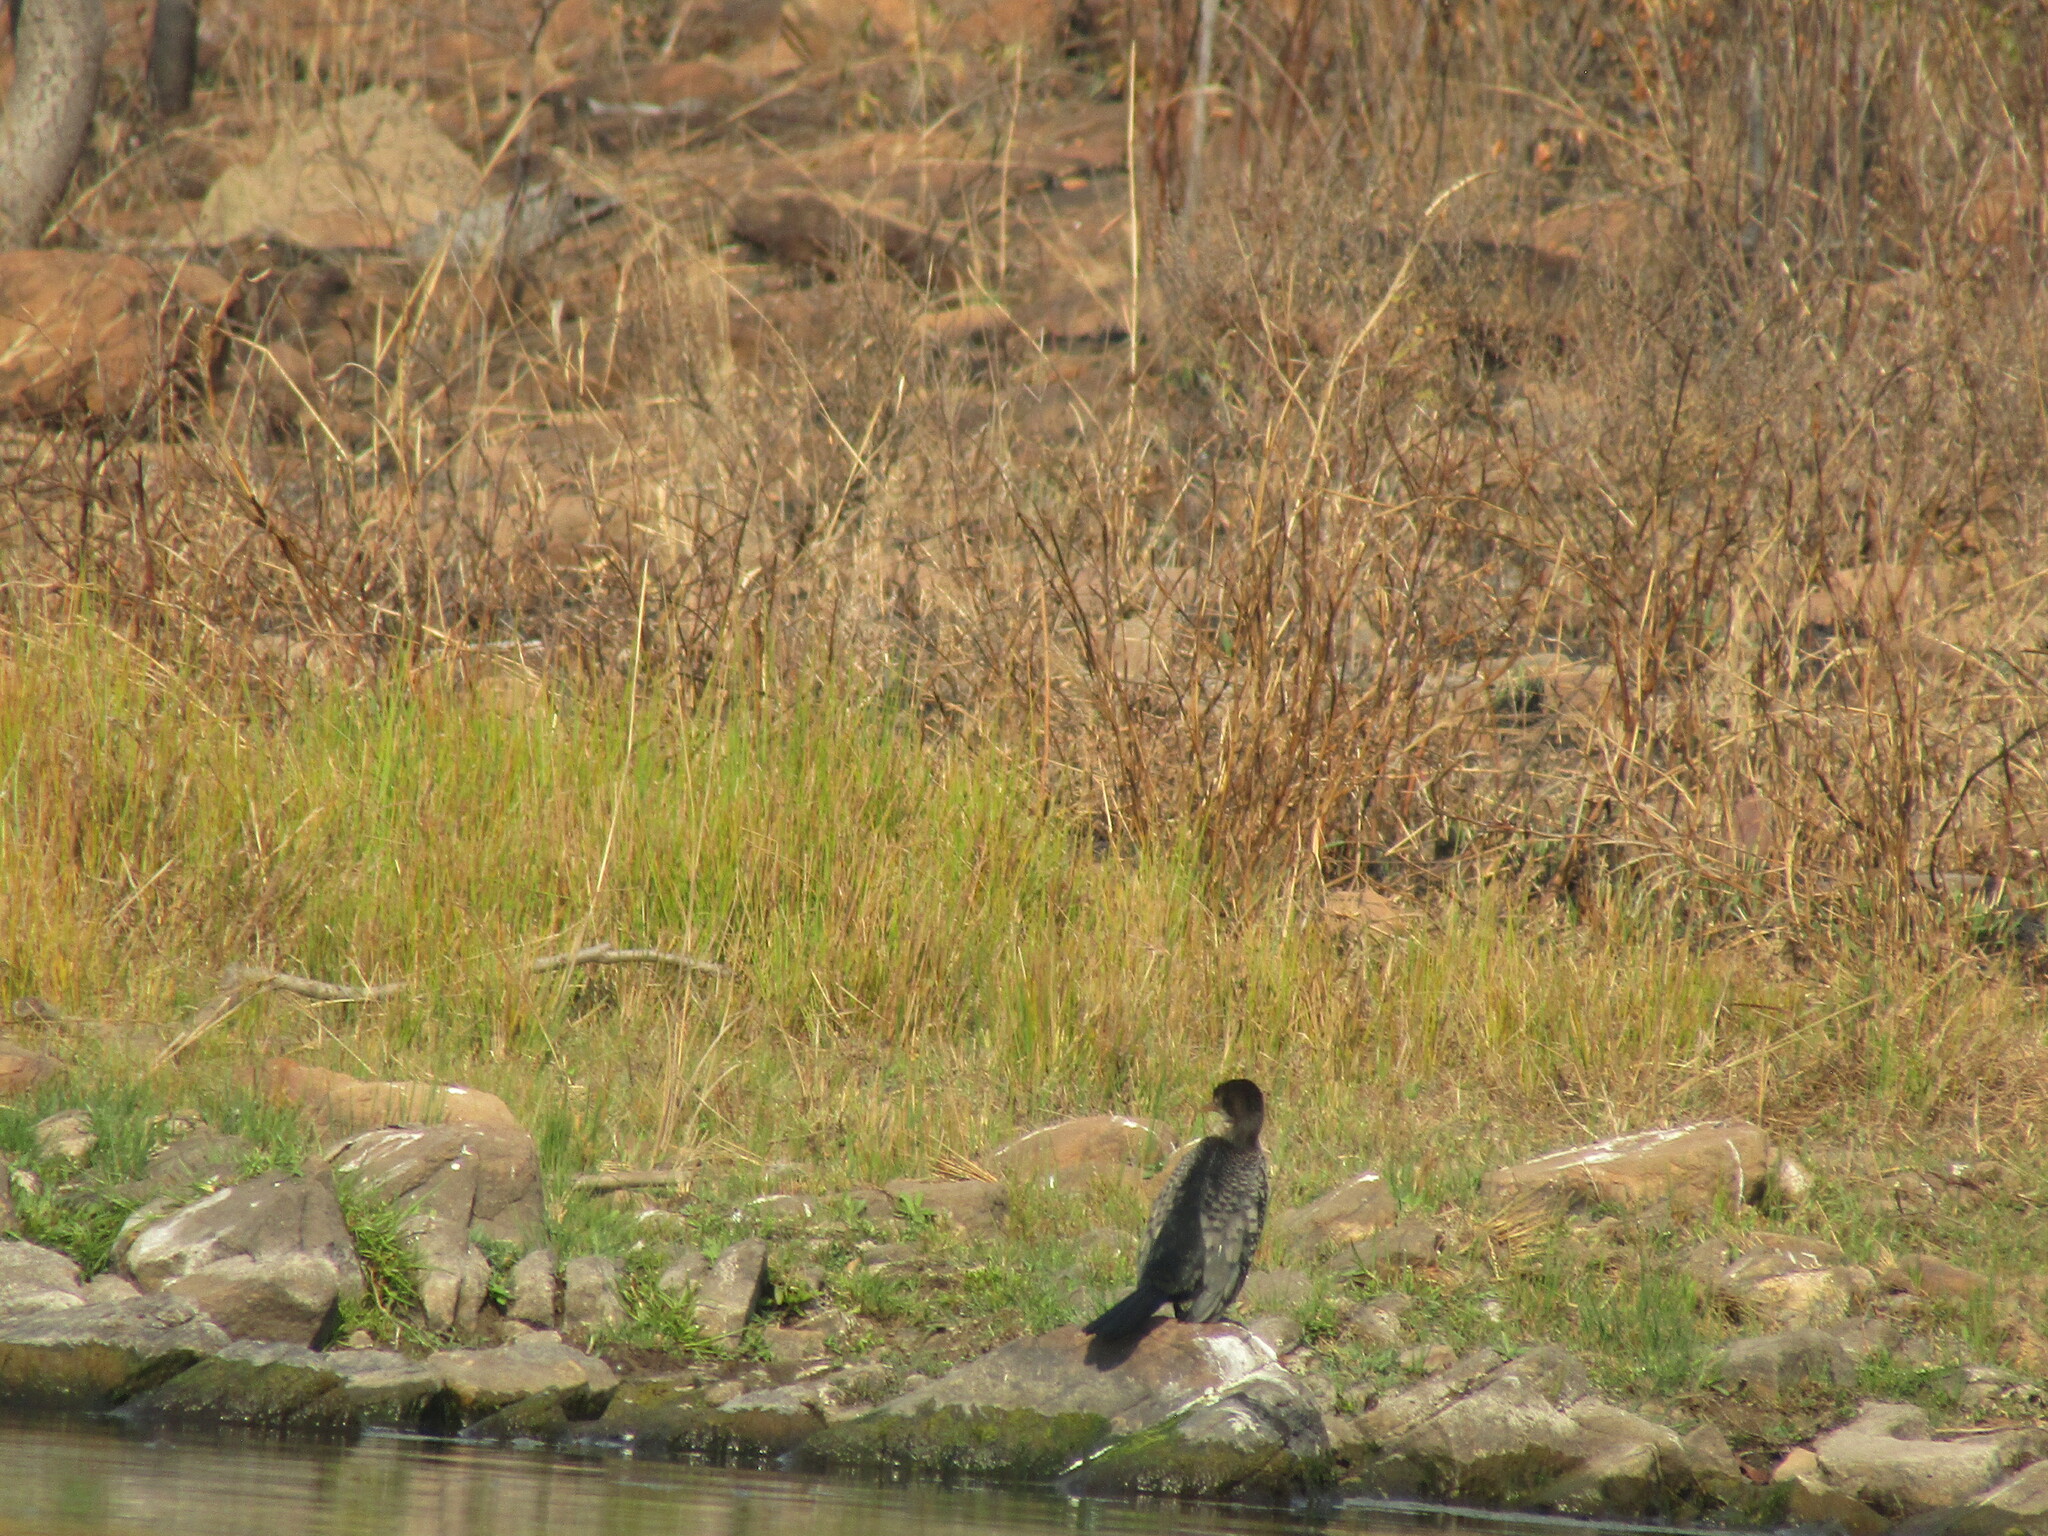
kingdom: Animalia
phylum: Chordata
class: Aves
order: Suliformes
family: Phalacrocoracidae
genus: Microcarbo
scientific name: Microcarbo africanus
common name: Long-tailed cormorant
